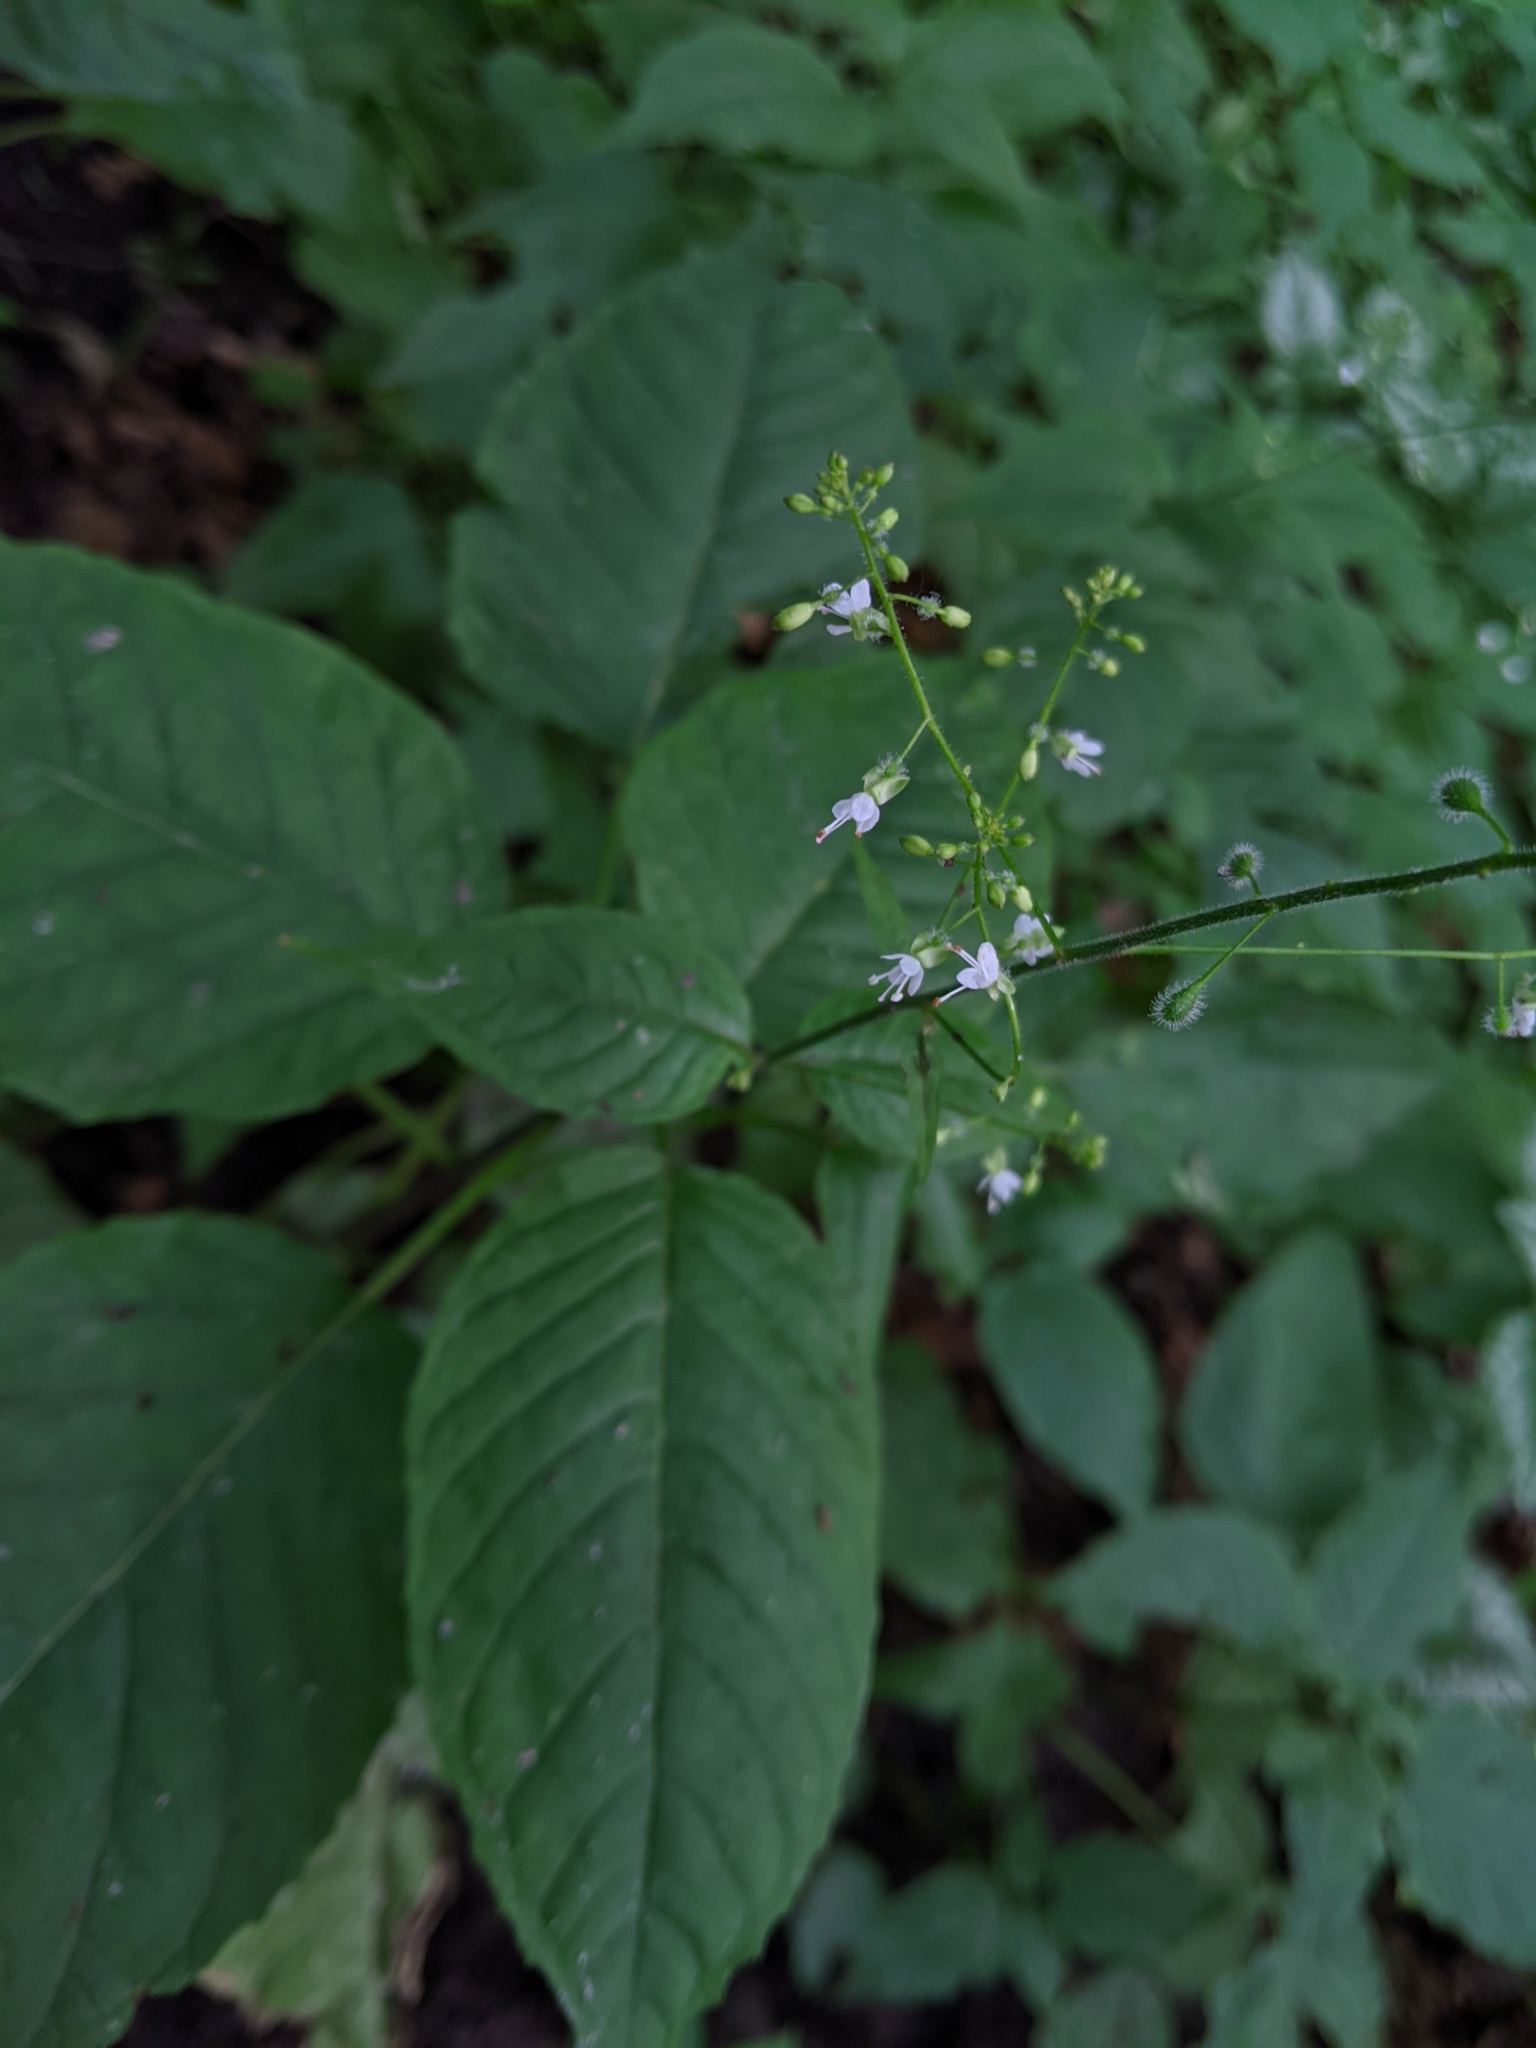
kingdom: Plantae
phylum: Tracheophyta
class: Magnoliopsida
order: Myrtales
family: Onagraceae
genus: Circaea
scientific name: Circaea lutetiana
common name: Enchanter's-nightshade
